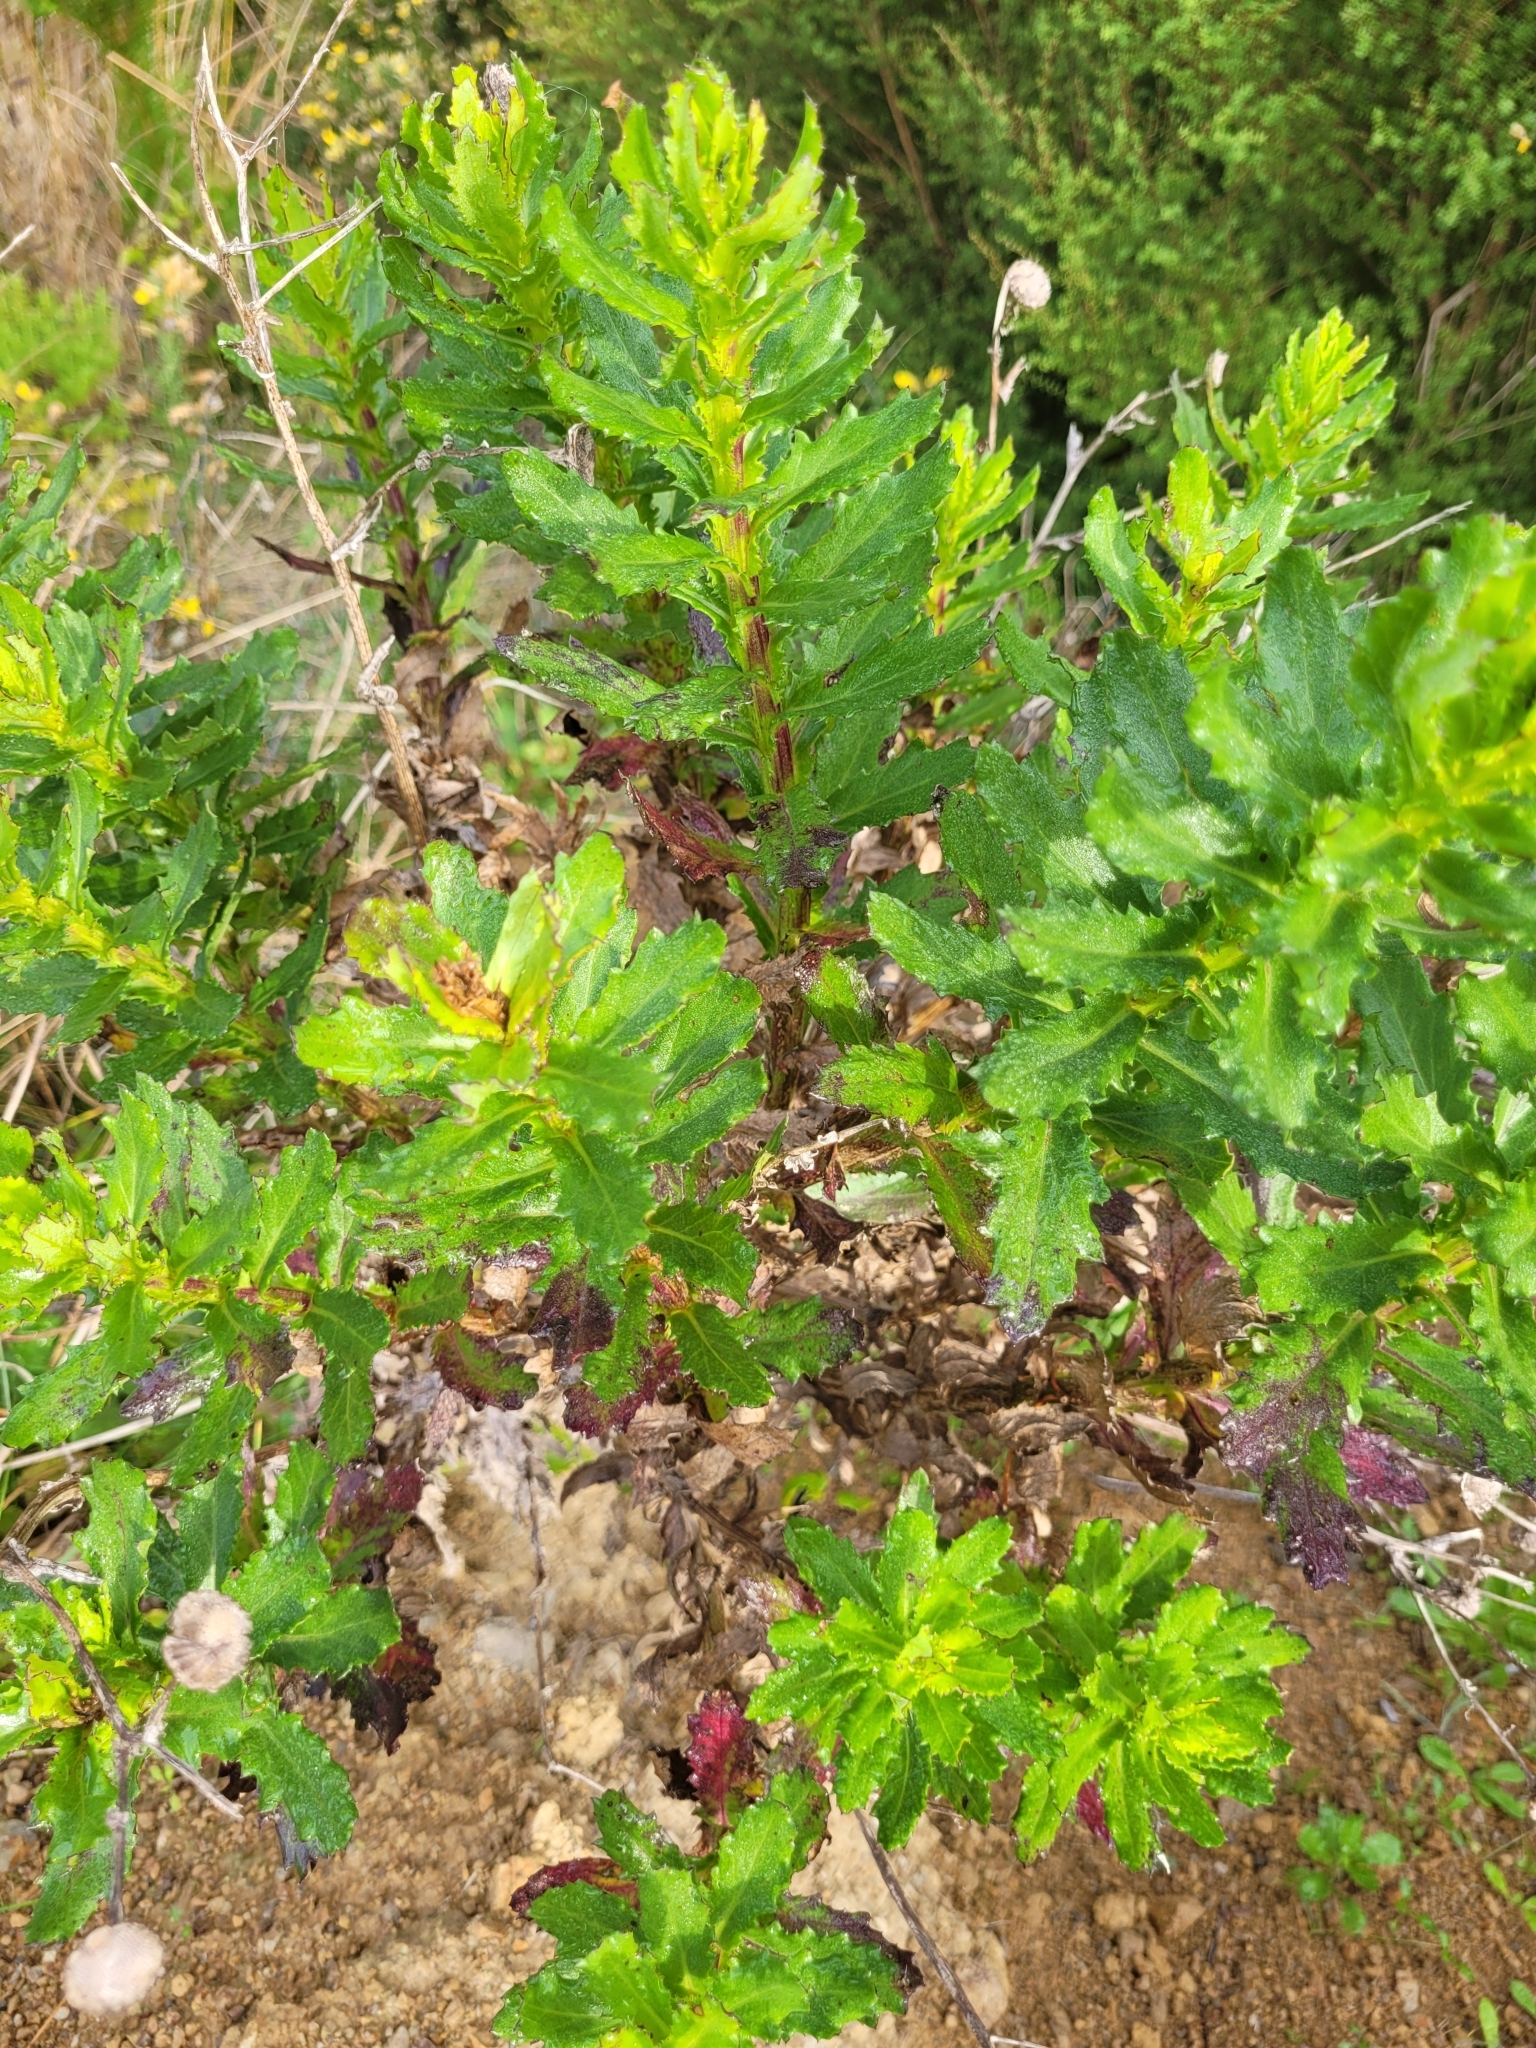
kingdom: Plantae
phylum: Tracheophyta
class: Magnoliopsida
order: Asterales
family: Asteraceae
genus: Senecio
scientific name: Senecio glastifolius
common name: Woad-leaved ragwort
